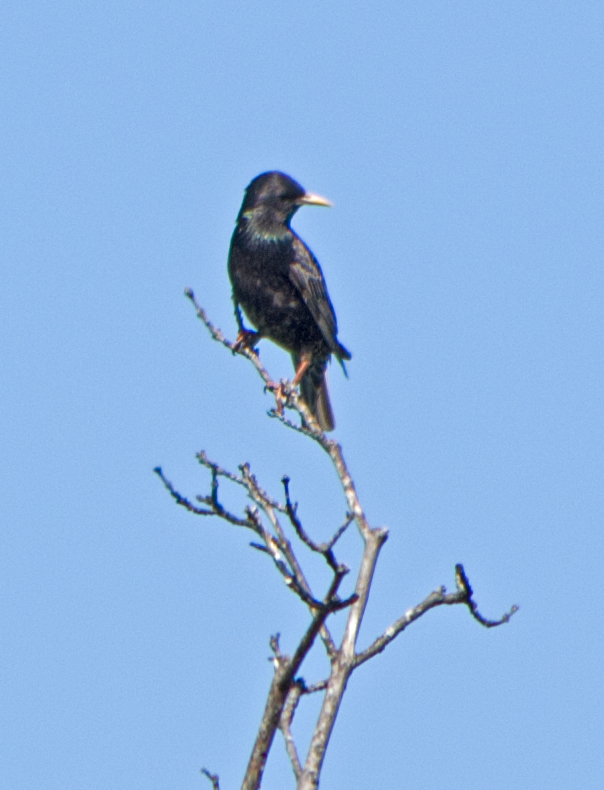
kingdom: Animalia
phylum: Chordata
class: Aves
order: Passeriformes
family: Sturnidae
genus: Sturnus
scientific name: Sturnus vulgaris
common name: Common starling
